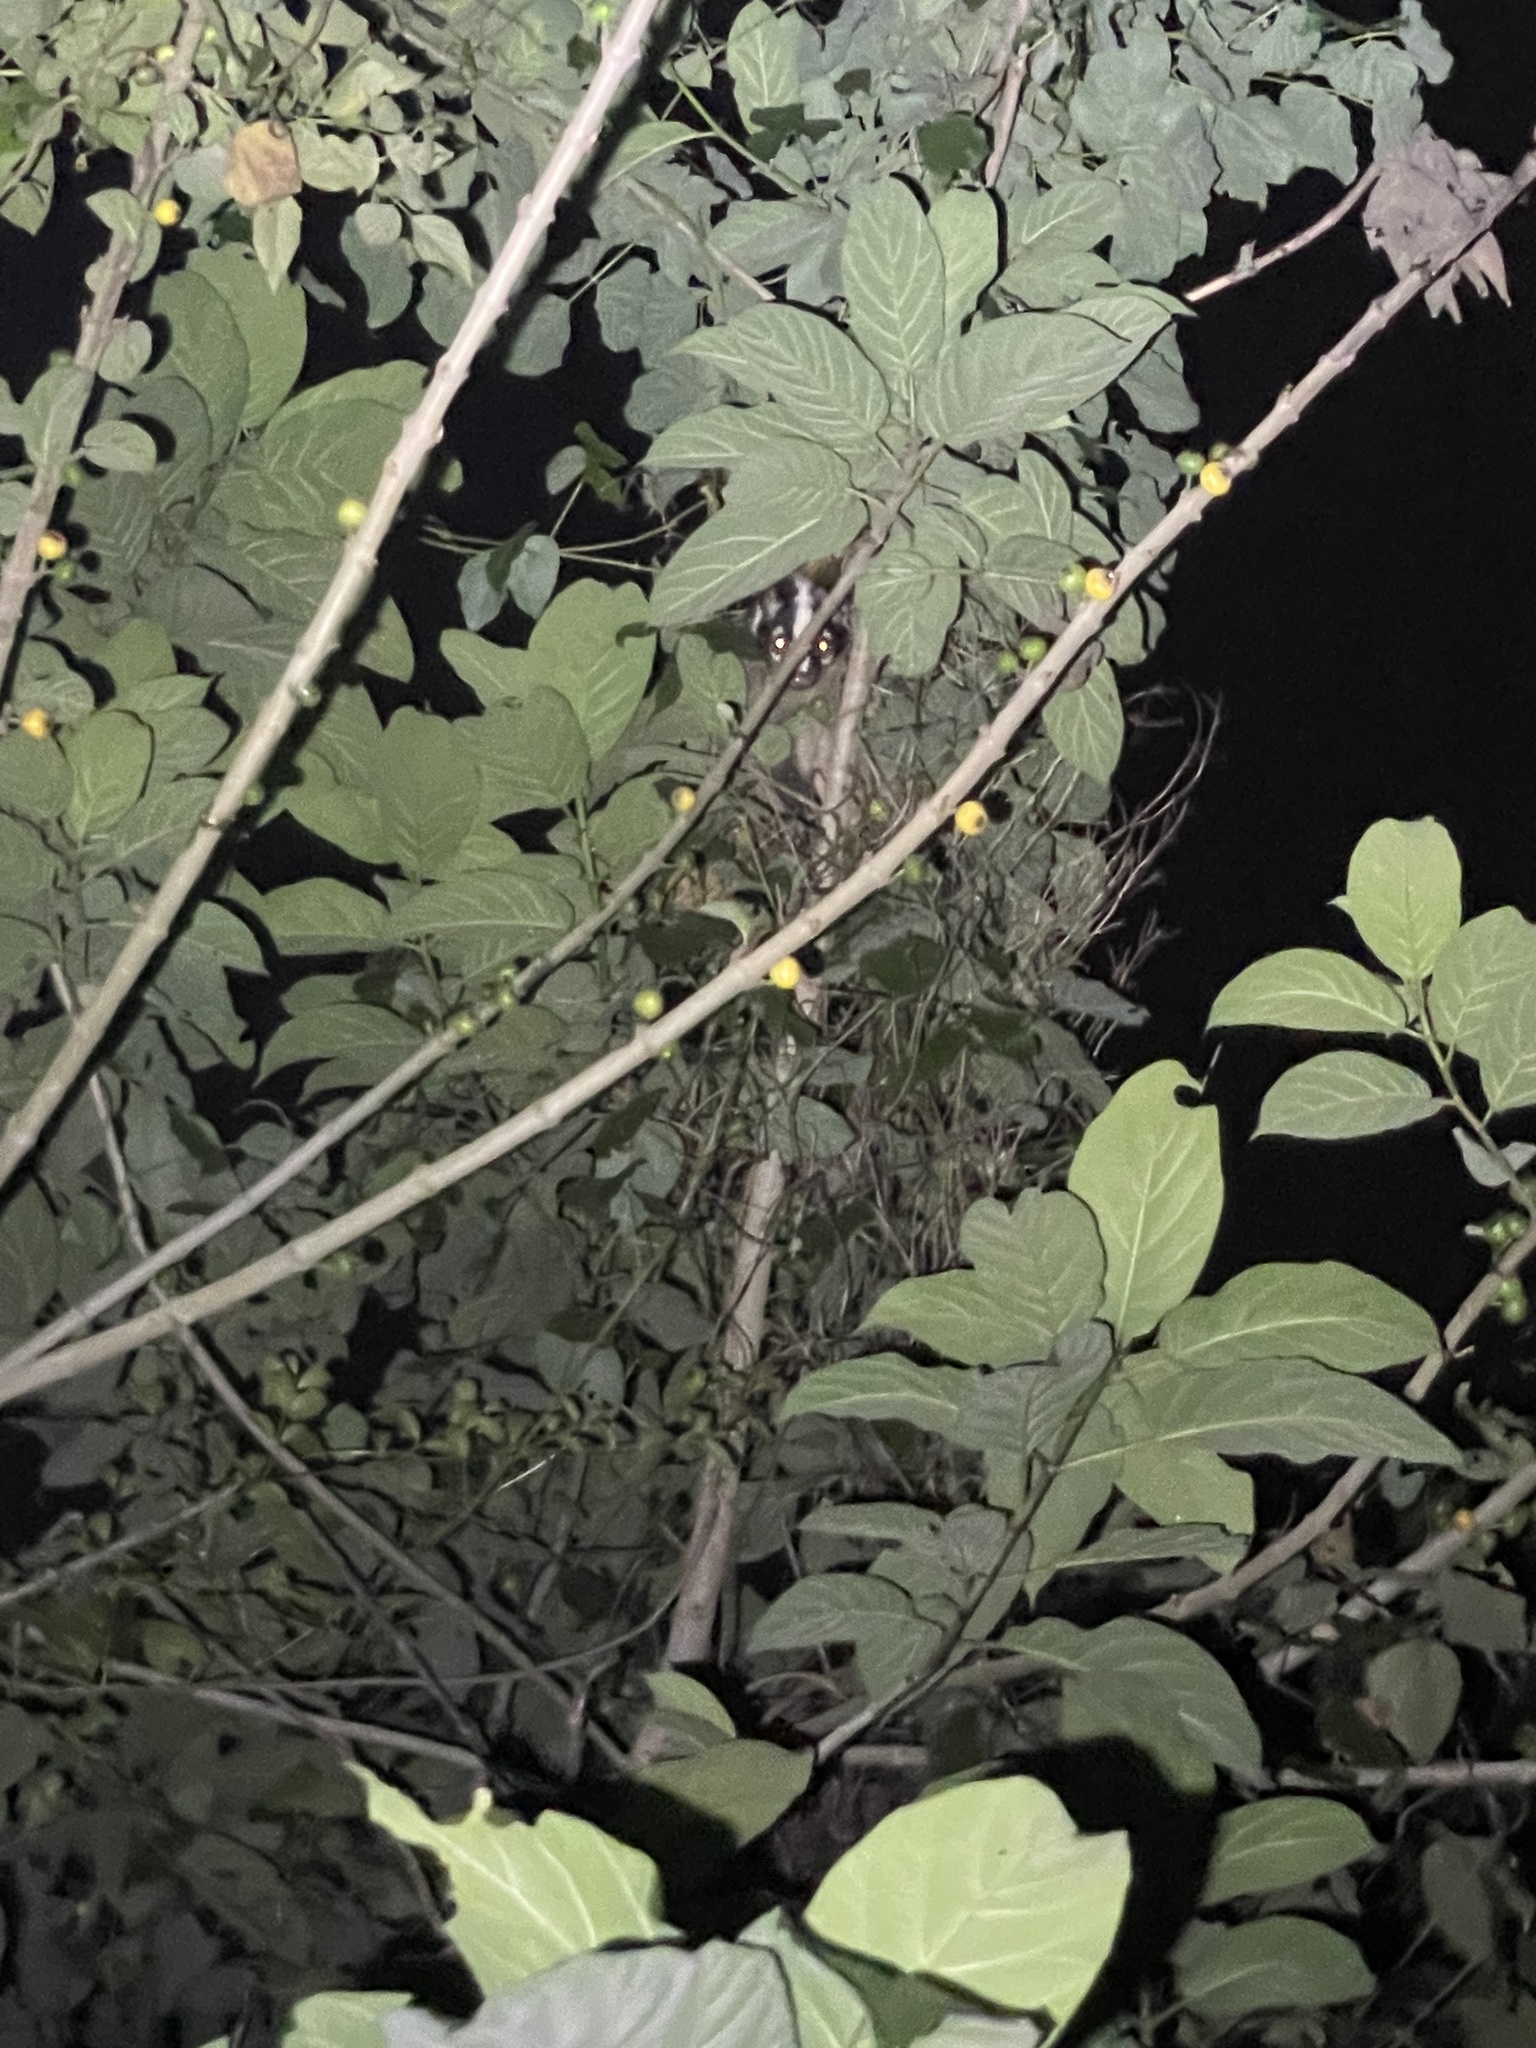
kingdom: Animalia
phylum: Chordata
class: Mammalia
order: Carnivora
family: Viverridae
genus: Paguma
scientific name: Paguma larvata
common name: Masked palm civet
